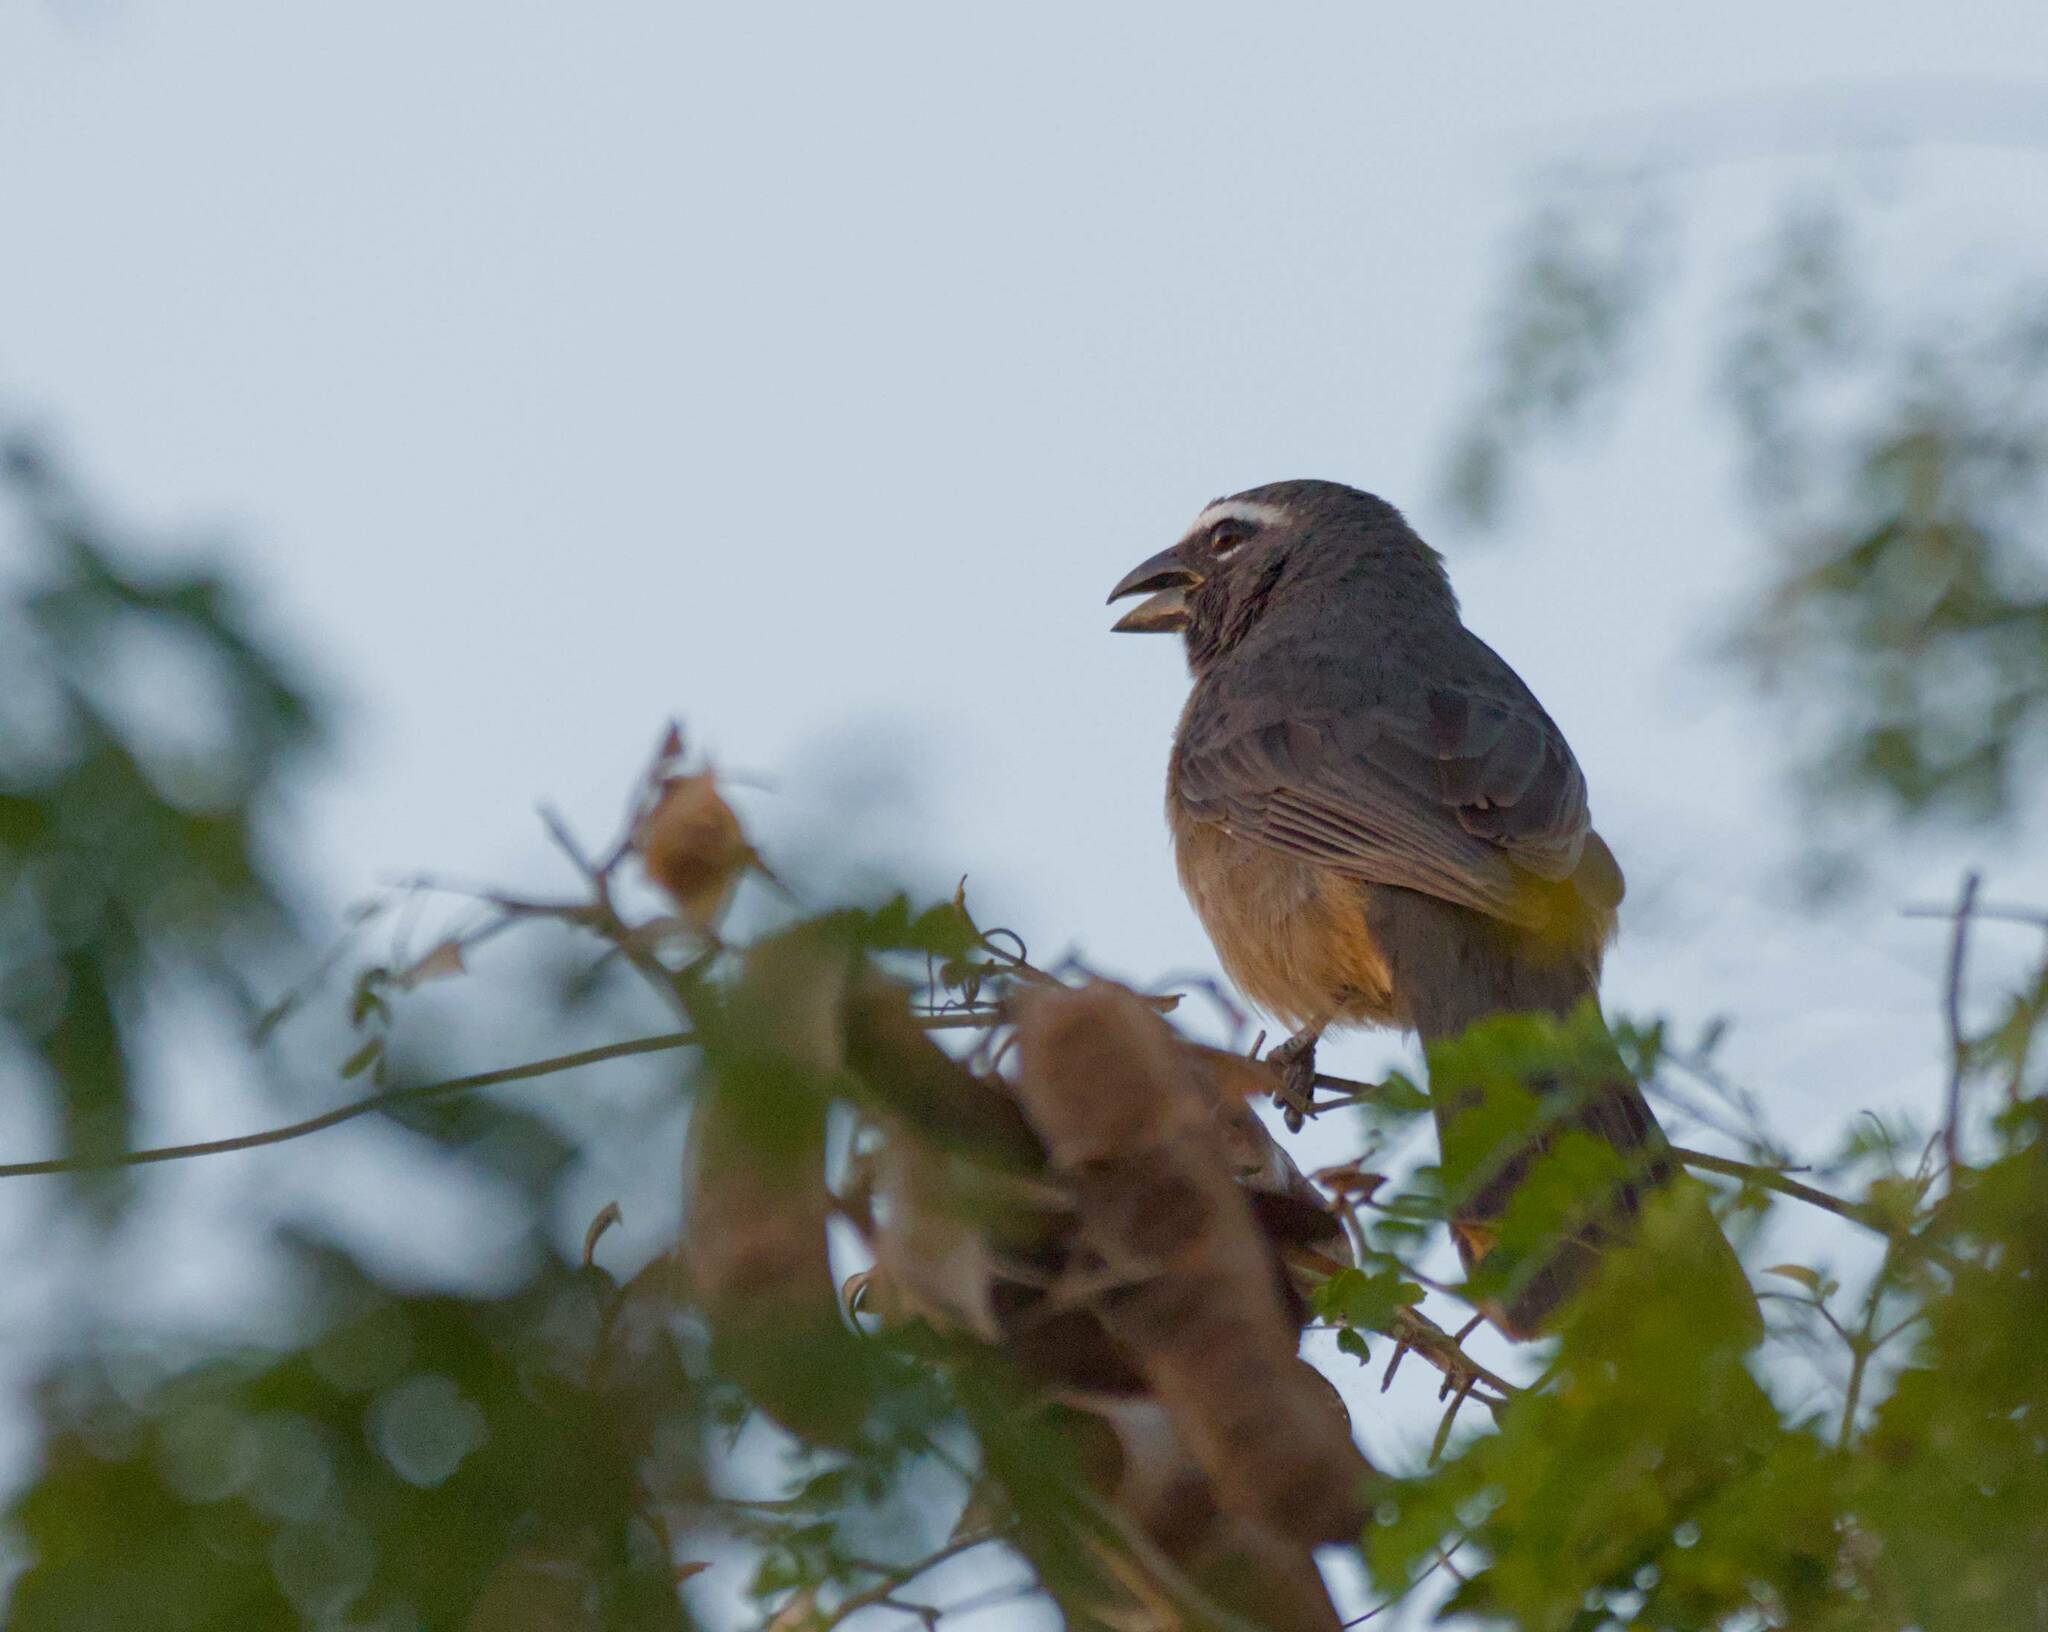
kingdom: Animalia
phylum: Chordata
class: Aves
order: Passeriformes
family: Thraupidae
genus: Saltator
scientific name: Saltator grandis
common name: Cinnamon-bellied saltator
